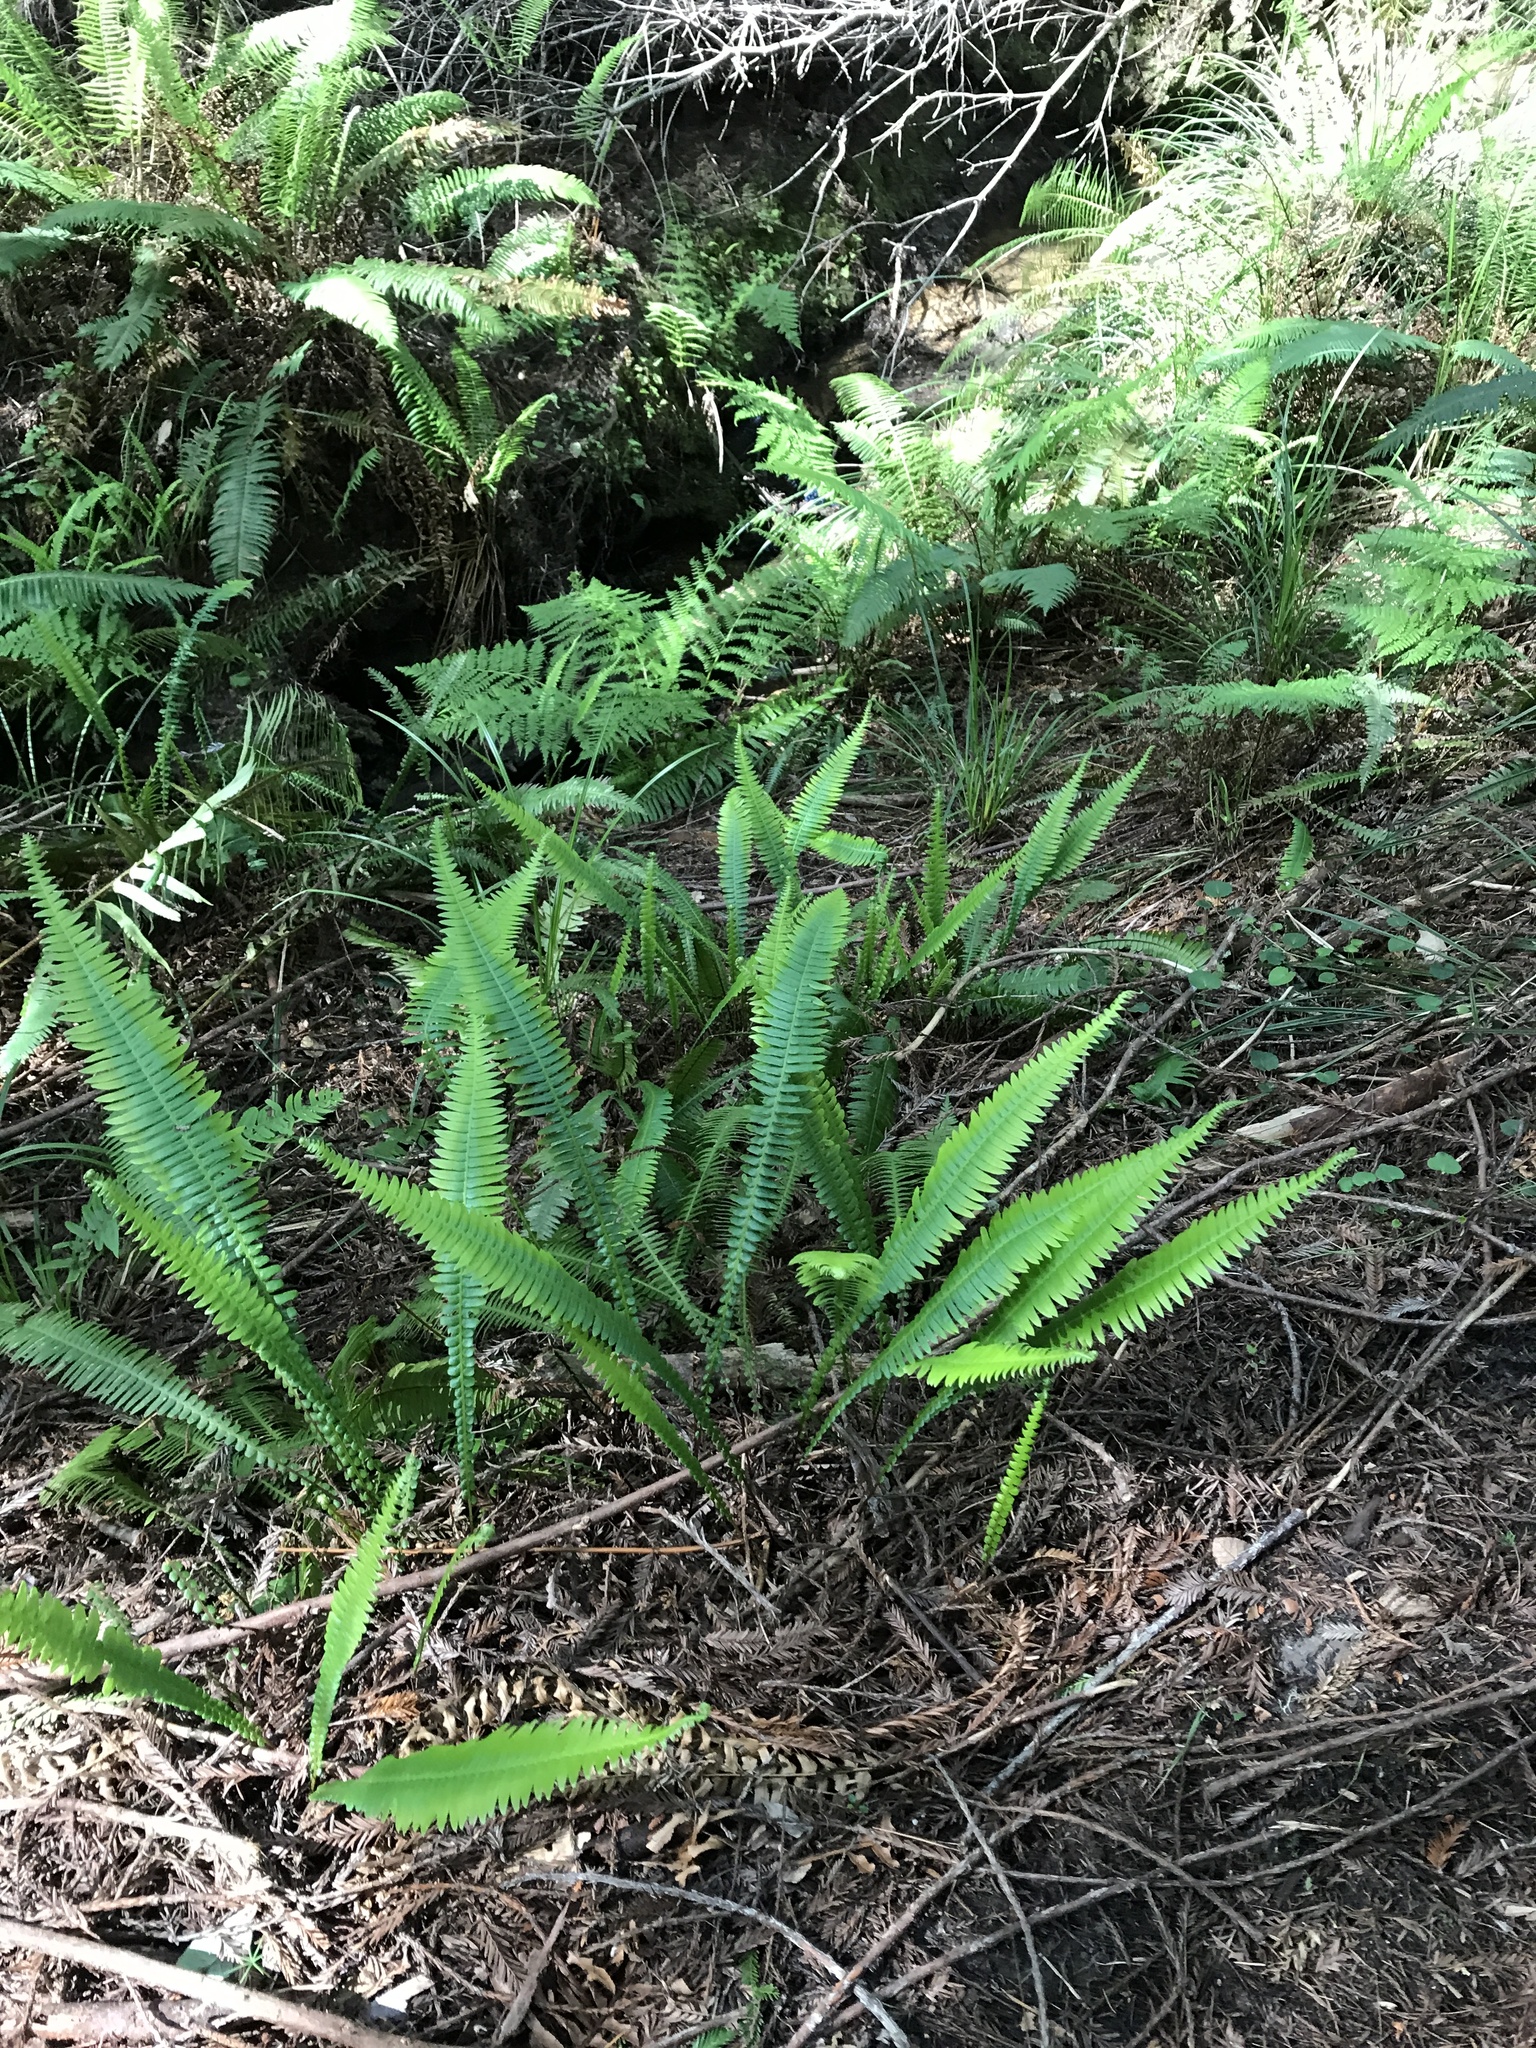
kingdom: Plantae
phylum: Tracheophyta
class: Polypodiopsida
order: Polypodiales
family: Blechnaceae
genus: Struthiopteris
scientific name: Struthiopteris spicant
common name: Deer fern
